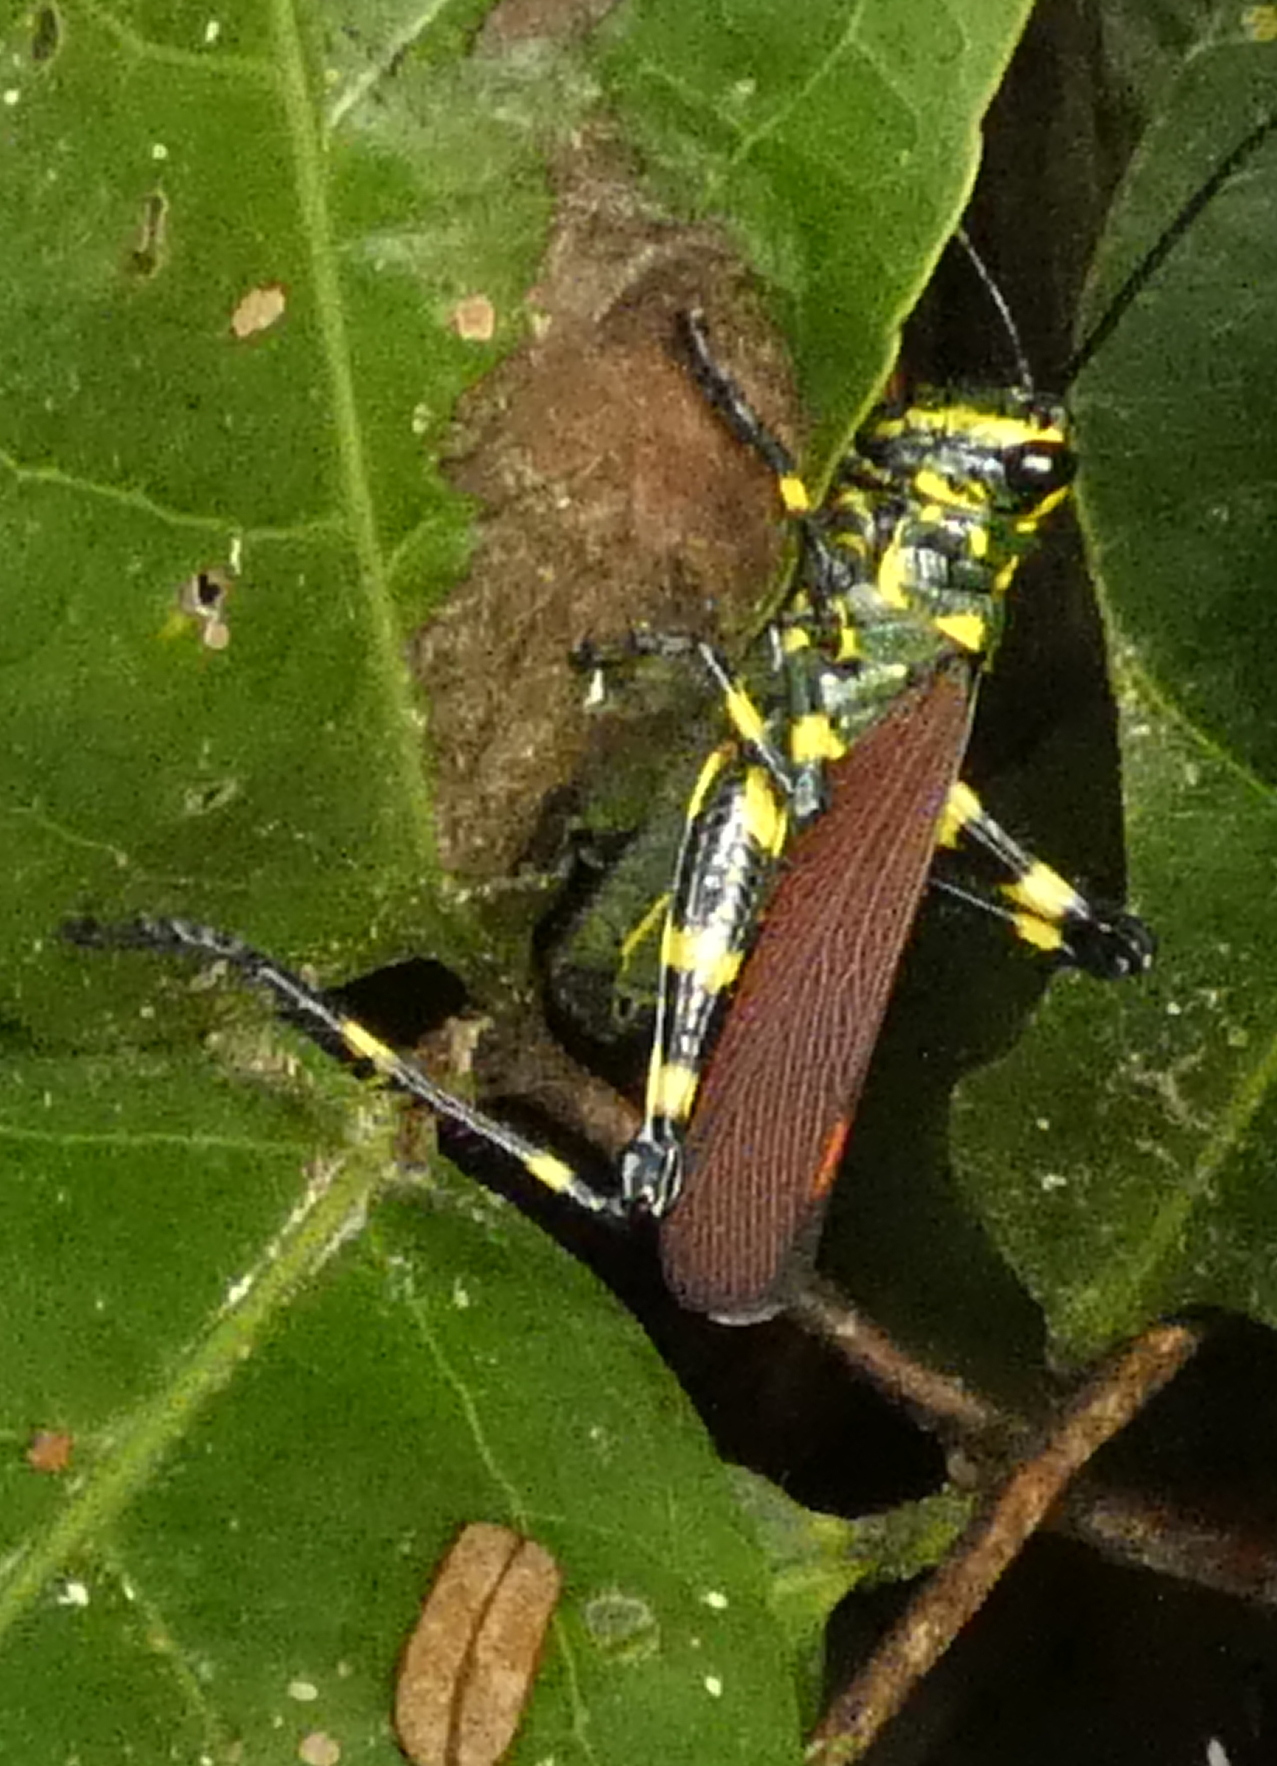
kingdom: Animalia
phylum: Arthropoda
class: Insecta
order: Orthoptera
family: Romaleidae
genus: Chromacris
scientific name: Chromacris speciosa
